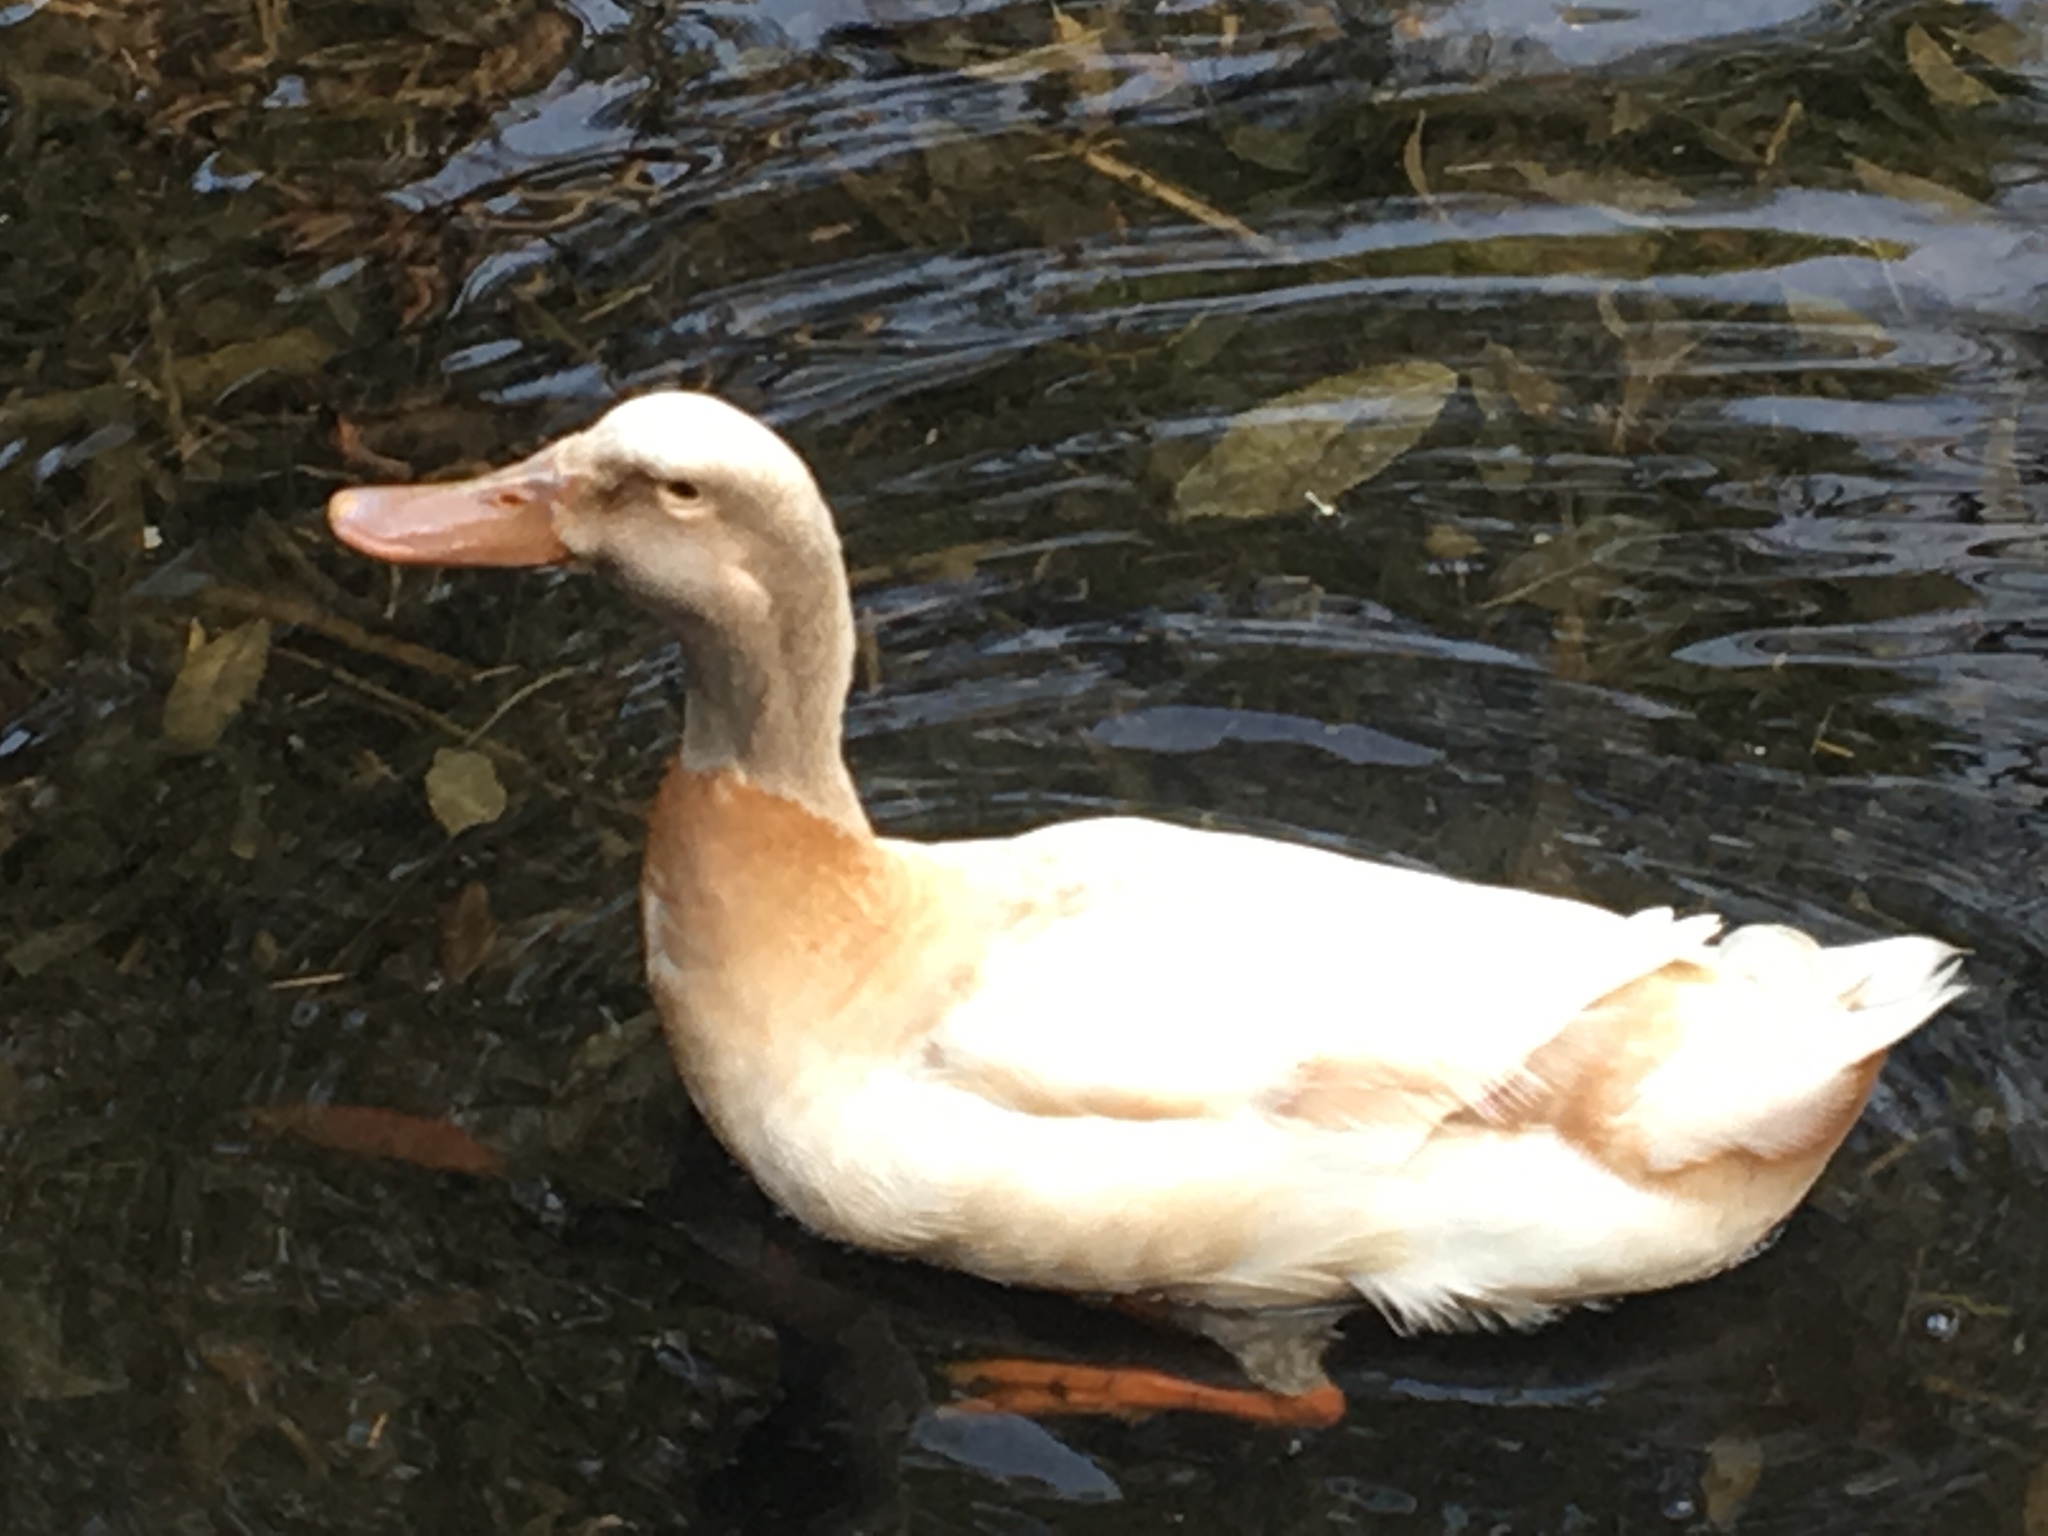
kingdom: Animalia
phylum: Chordata
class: Aves
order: Anseriformes
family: Anatidae
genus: Anas
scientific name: Anas platyrhynchos
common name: Mallard
